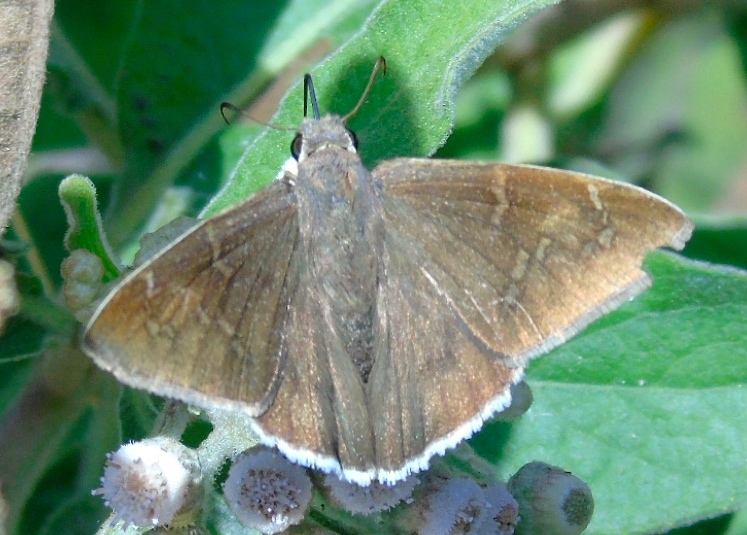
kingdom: Animalia
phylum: Arthropoda
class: Insecta
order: Lepidoptera
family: Hesperiidae
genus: Achalarus
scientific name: Achalarus Murgaria albociliatus
